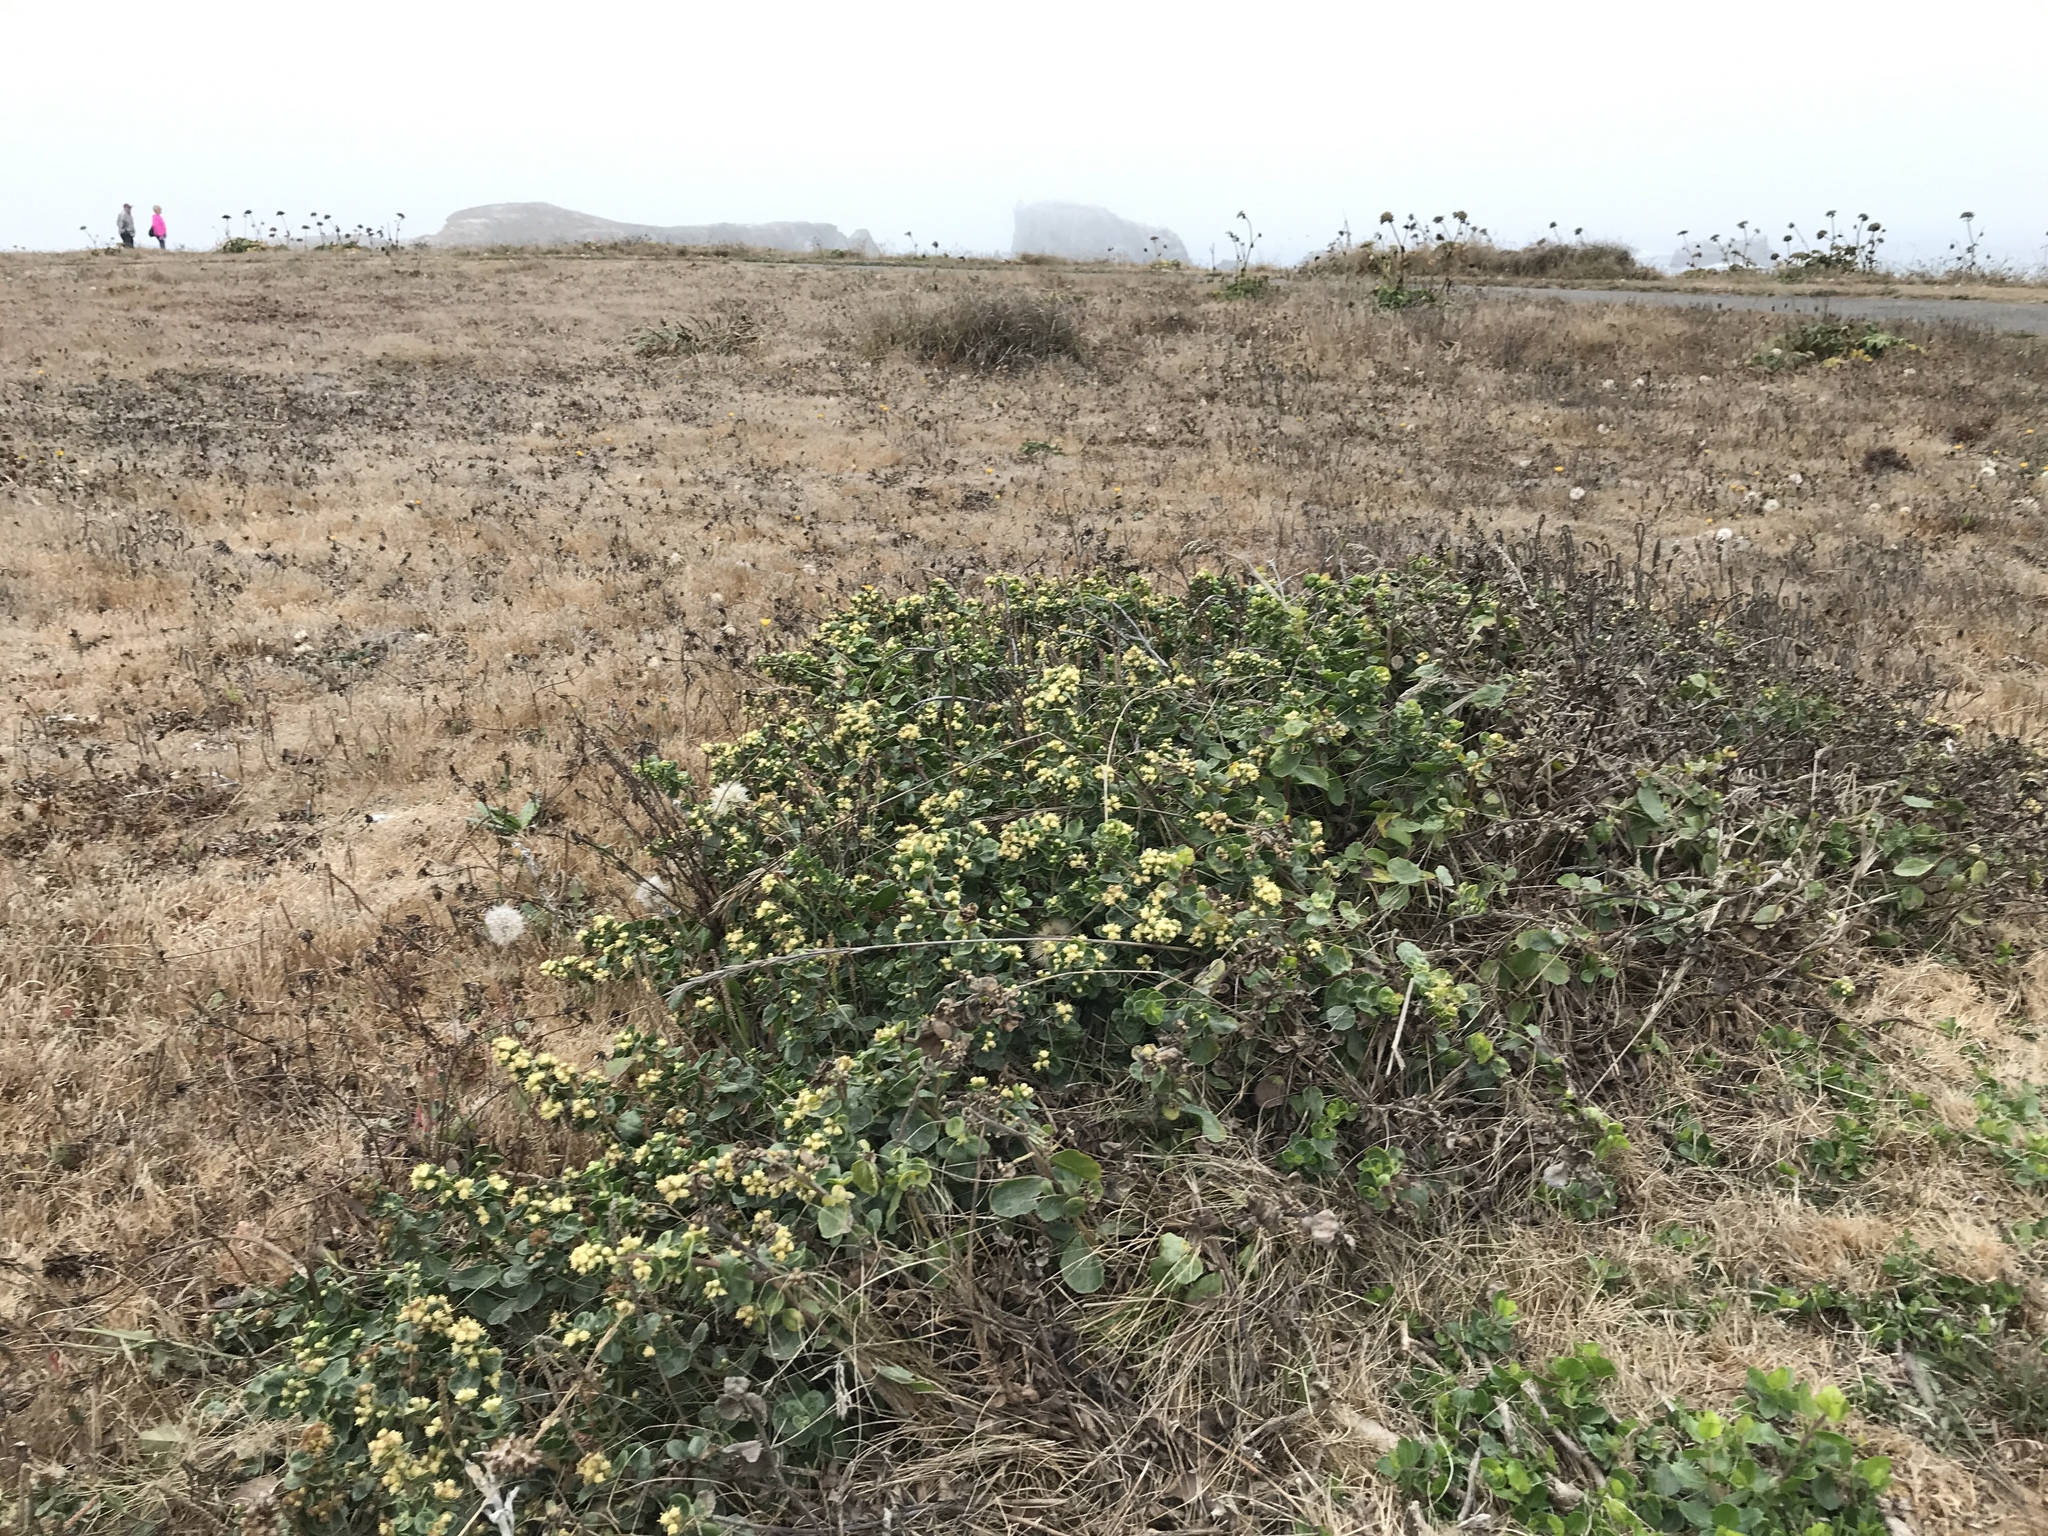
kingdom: Plantae
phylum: Tracheophyta
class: Magnoliopsida
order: Asterales
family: Asteraceae
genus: Baccharis
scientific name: Baccharis pilularis
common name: Coyotebrush
